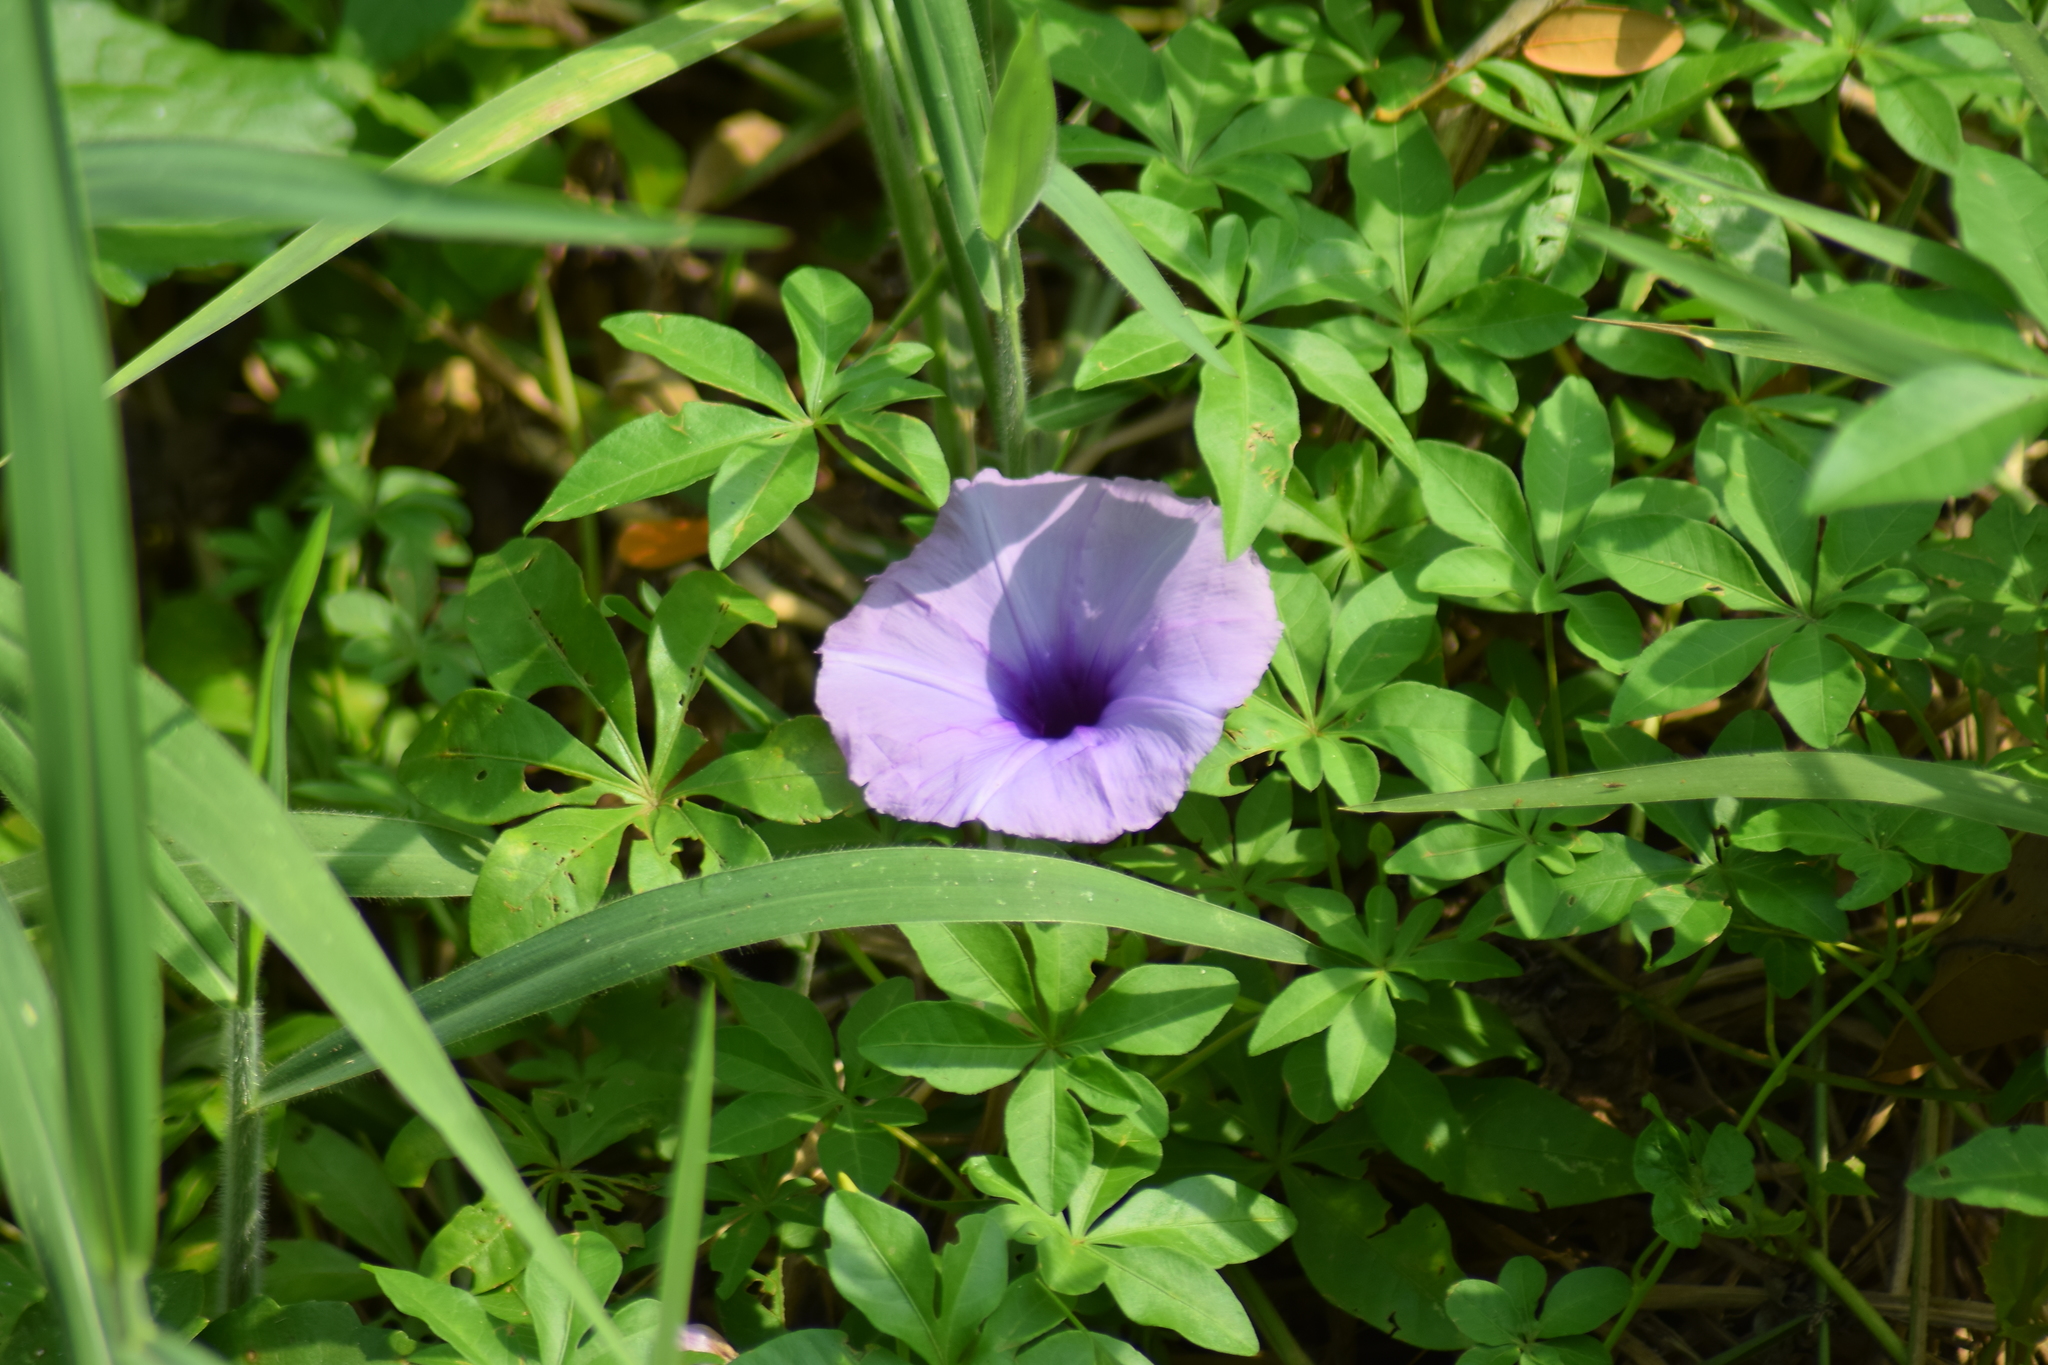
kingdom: Plantae
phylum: Tracheophyta
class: Magnoliopsida
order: Solanales
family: Convolvulaceae
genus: Ipomoea
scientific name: Ipomoea cairica
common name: Mile a minute vine
